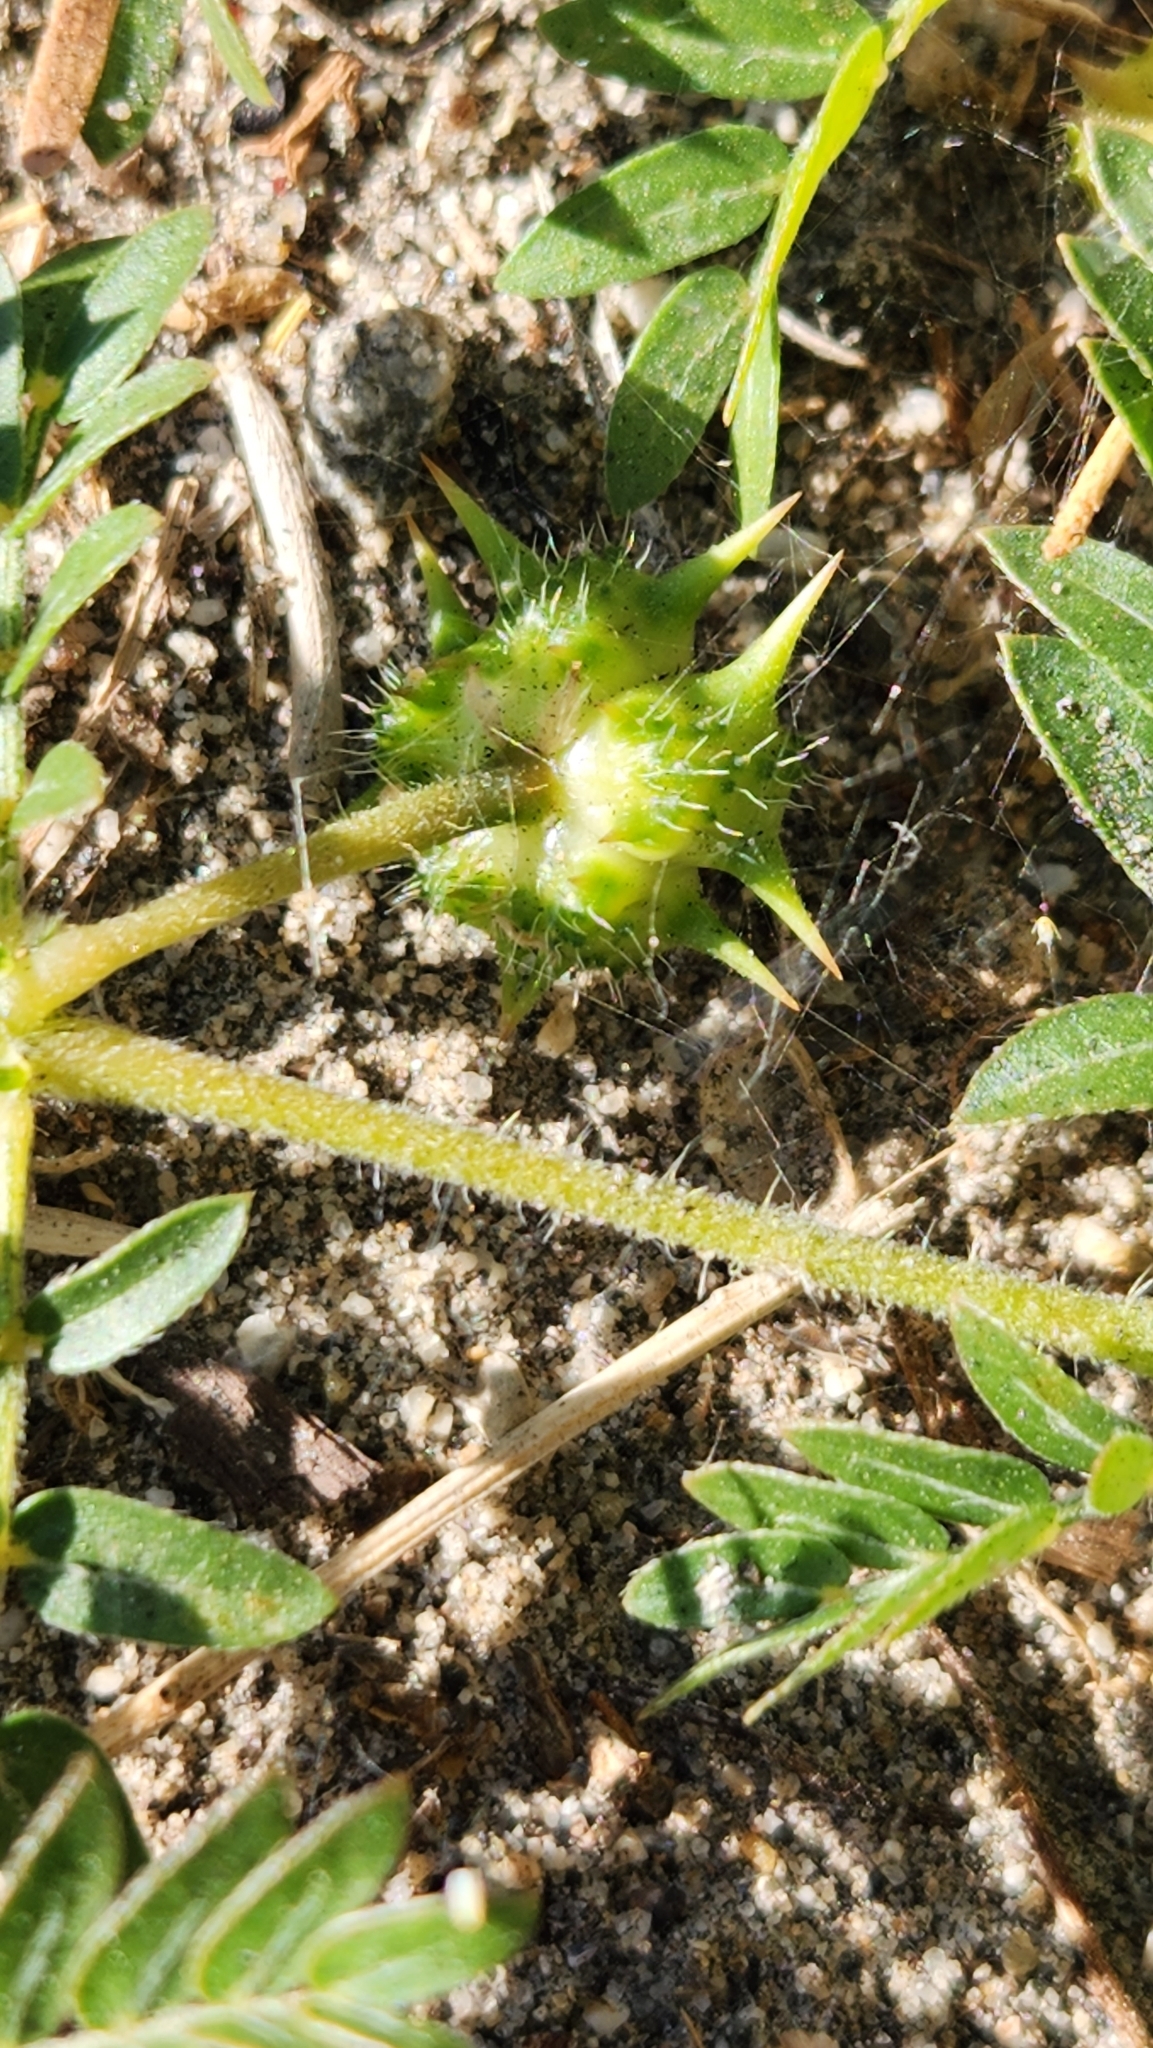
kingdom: Plantae
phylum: Tracheophyta
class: Magnoliopsida
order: Zygophyllales
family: Zygophyllaceae
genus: Tribulus
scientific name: Tribulus terrestris
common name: Puncturevine
